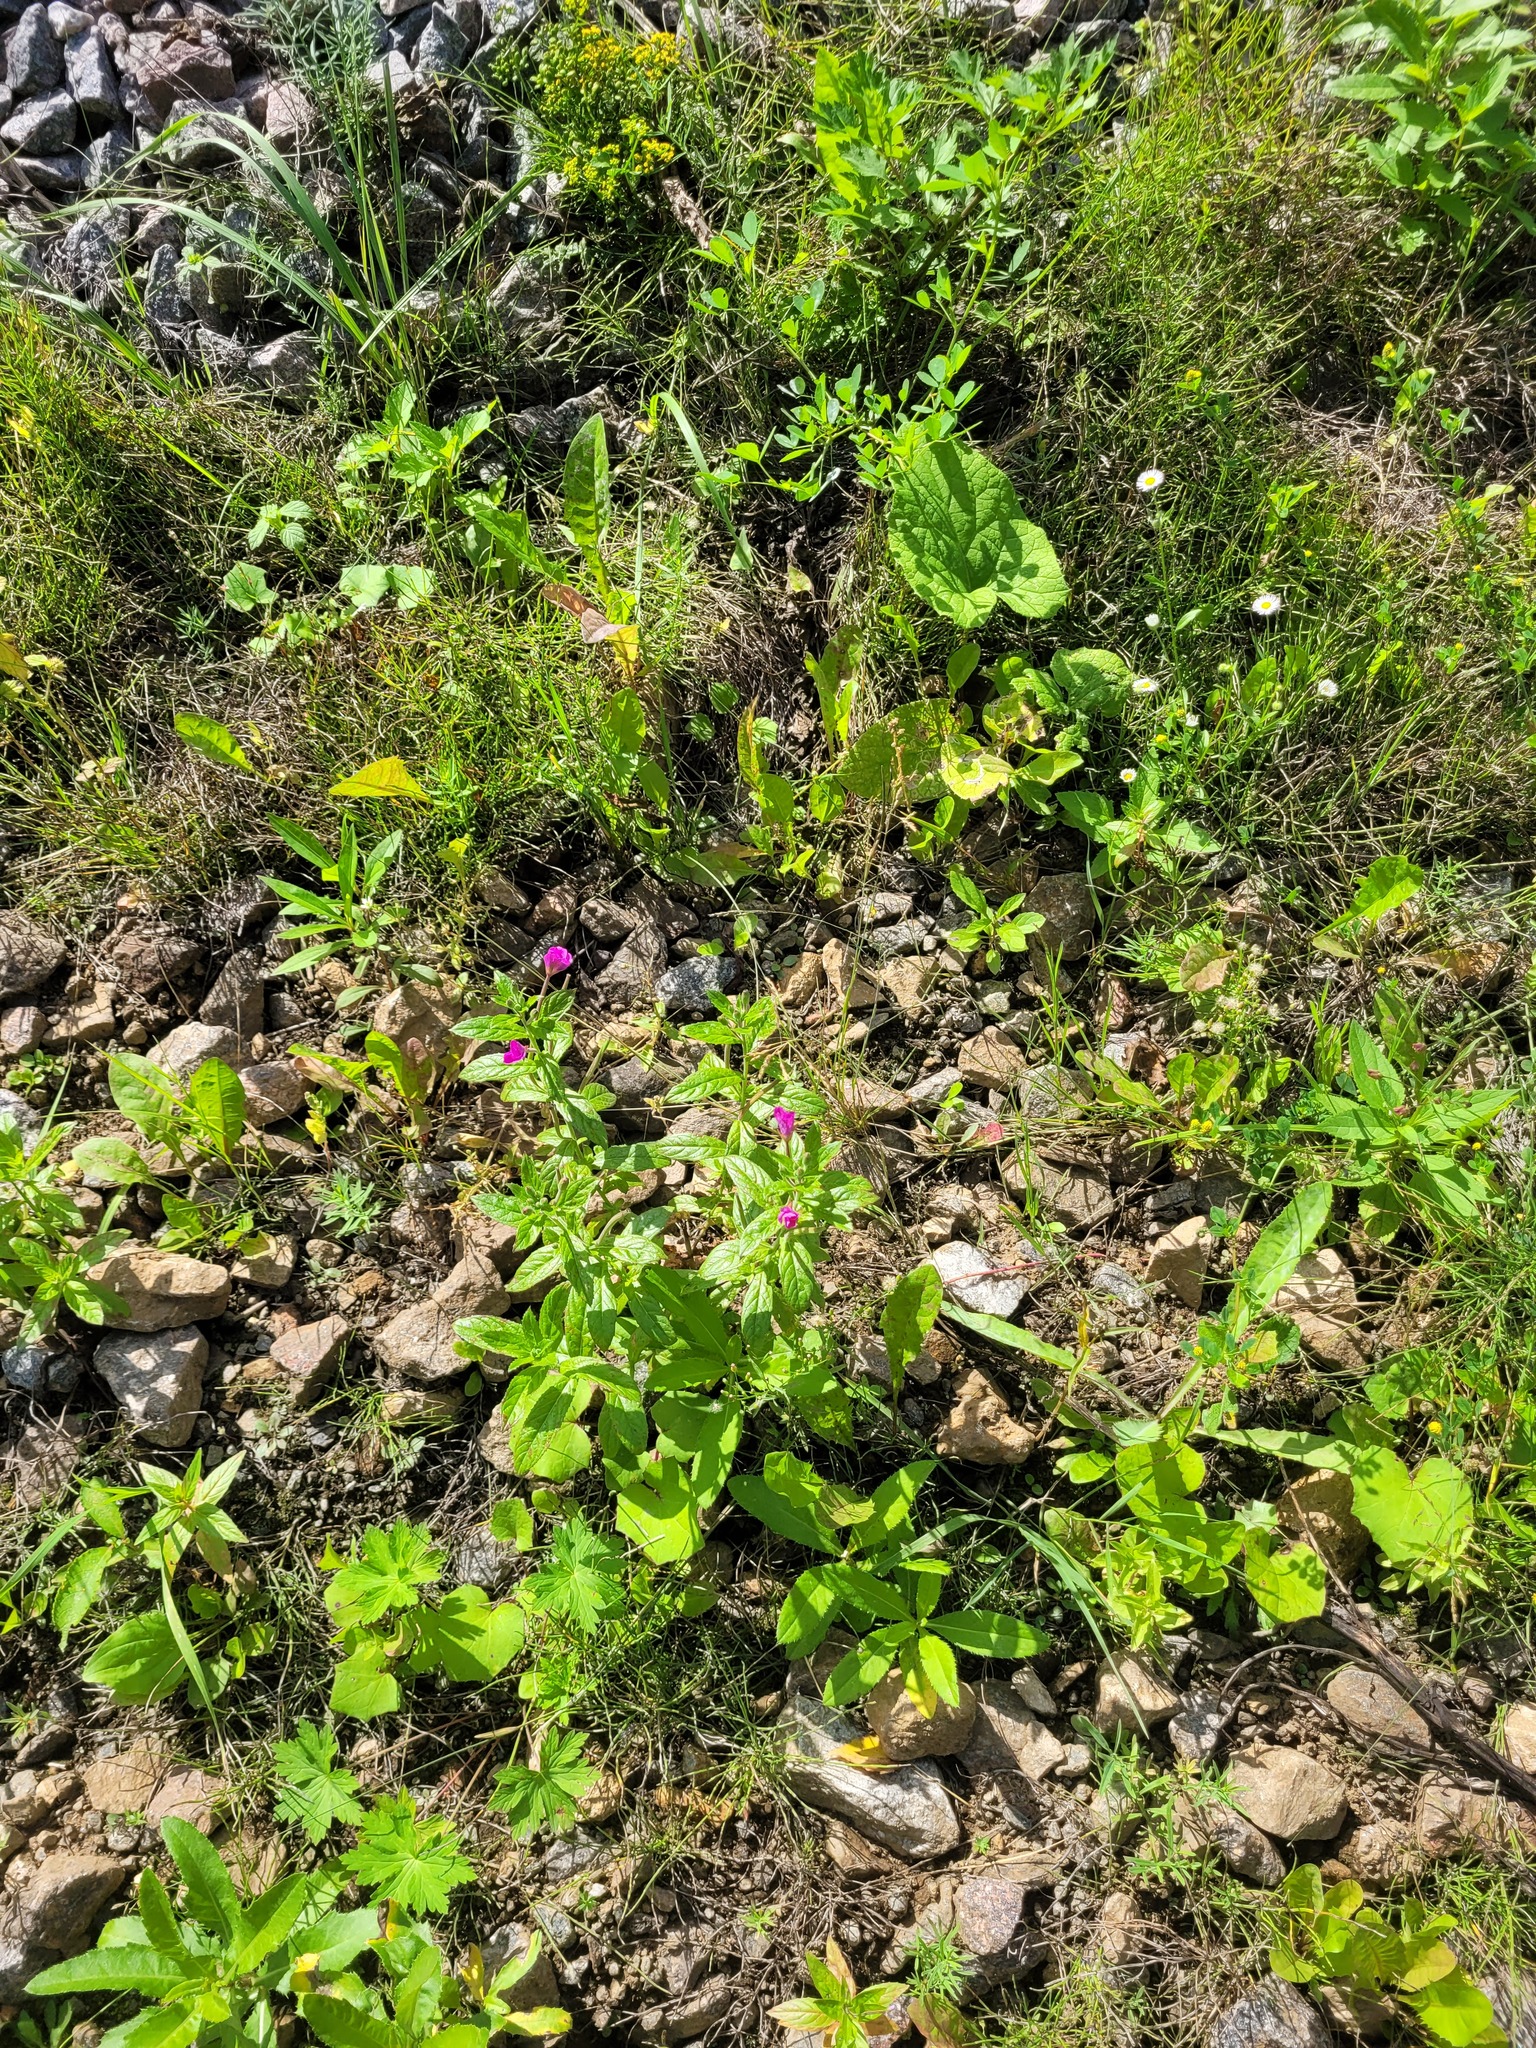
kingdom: Plantae
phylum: Tracheophyta
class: Magnoliopsida
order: Myrtales
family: Onagraceae
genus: Epilobium
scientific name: Epilobium hirsutum
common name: Great willowherb
